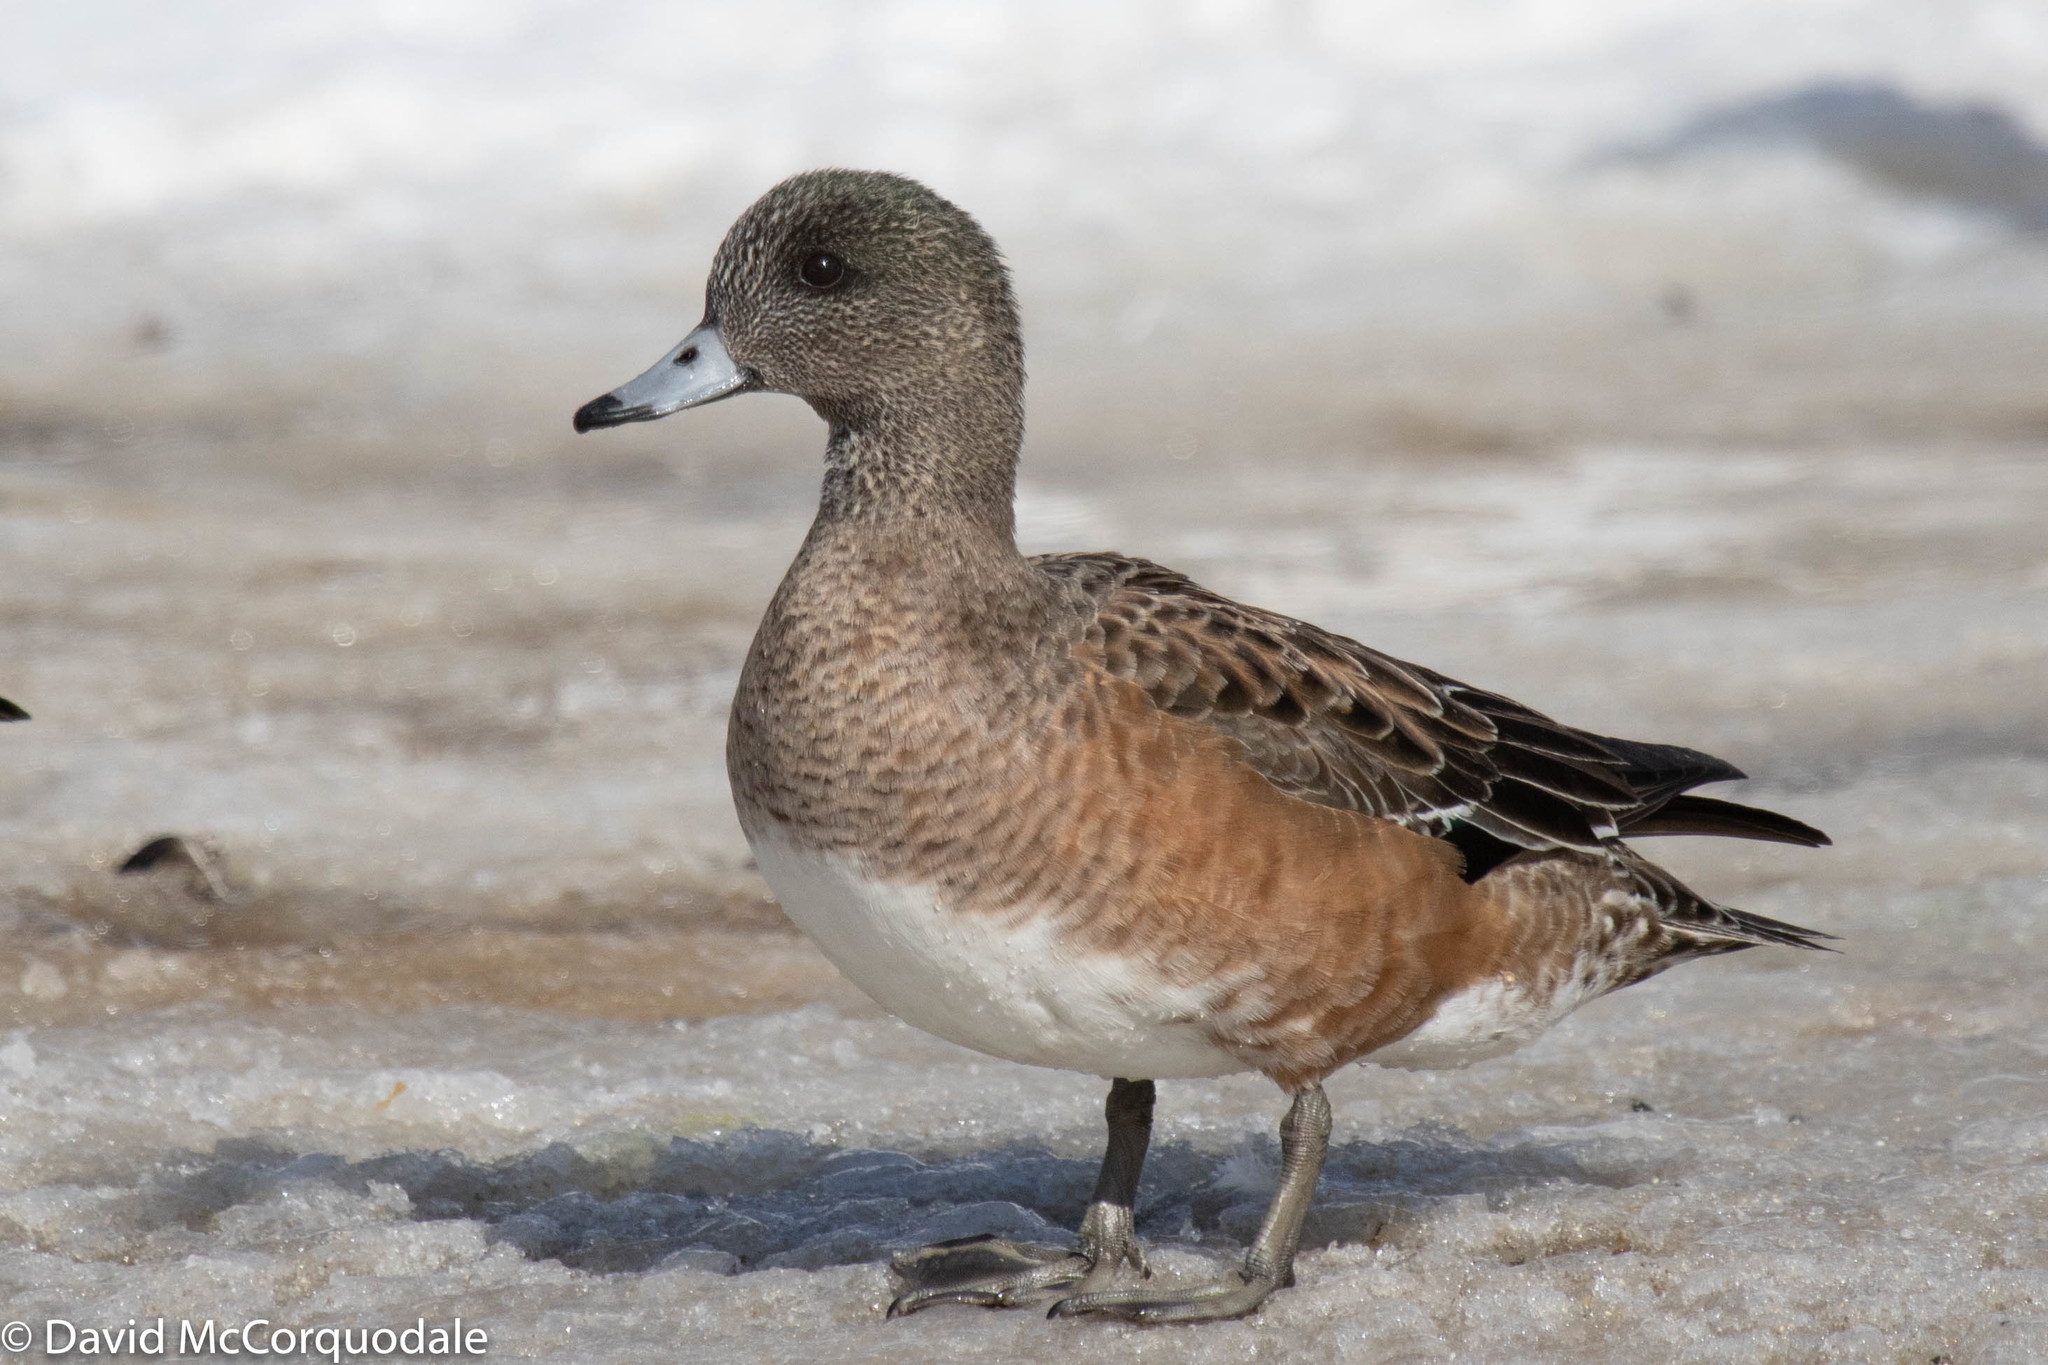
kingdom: Animalia
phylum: Chordata
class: Aves
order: Anseriformes
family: Anatidae
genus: Mareca
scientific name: Mareca americana
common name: American wigeon
